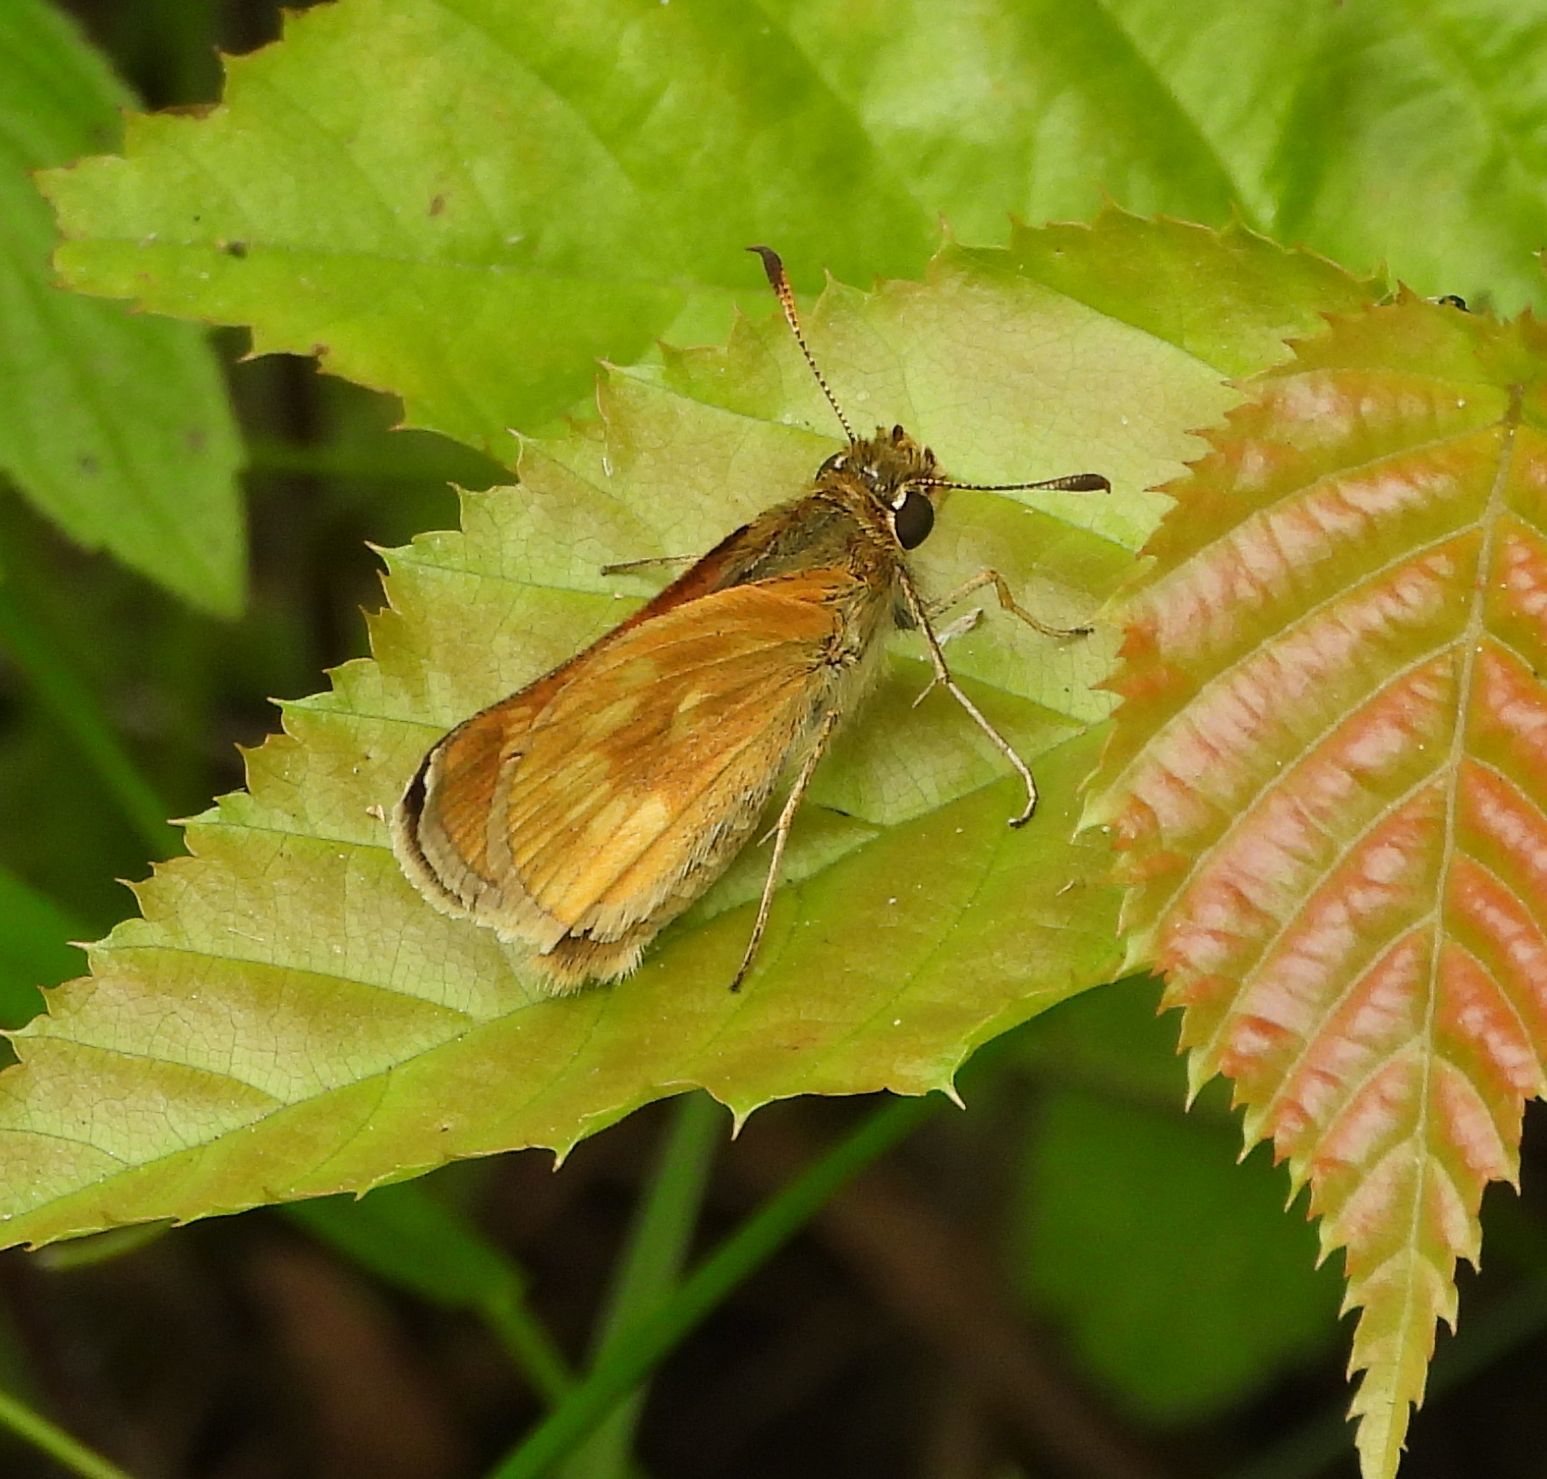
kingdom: Animalia
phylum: Arthropoda
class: Insecta
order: Lepidoptera
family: Hesperiidae
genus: Polites
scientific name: Polites mystic
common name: Long dash
